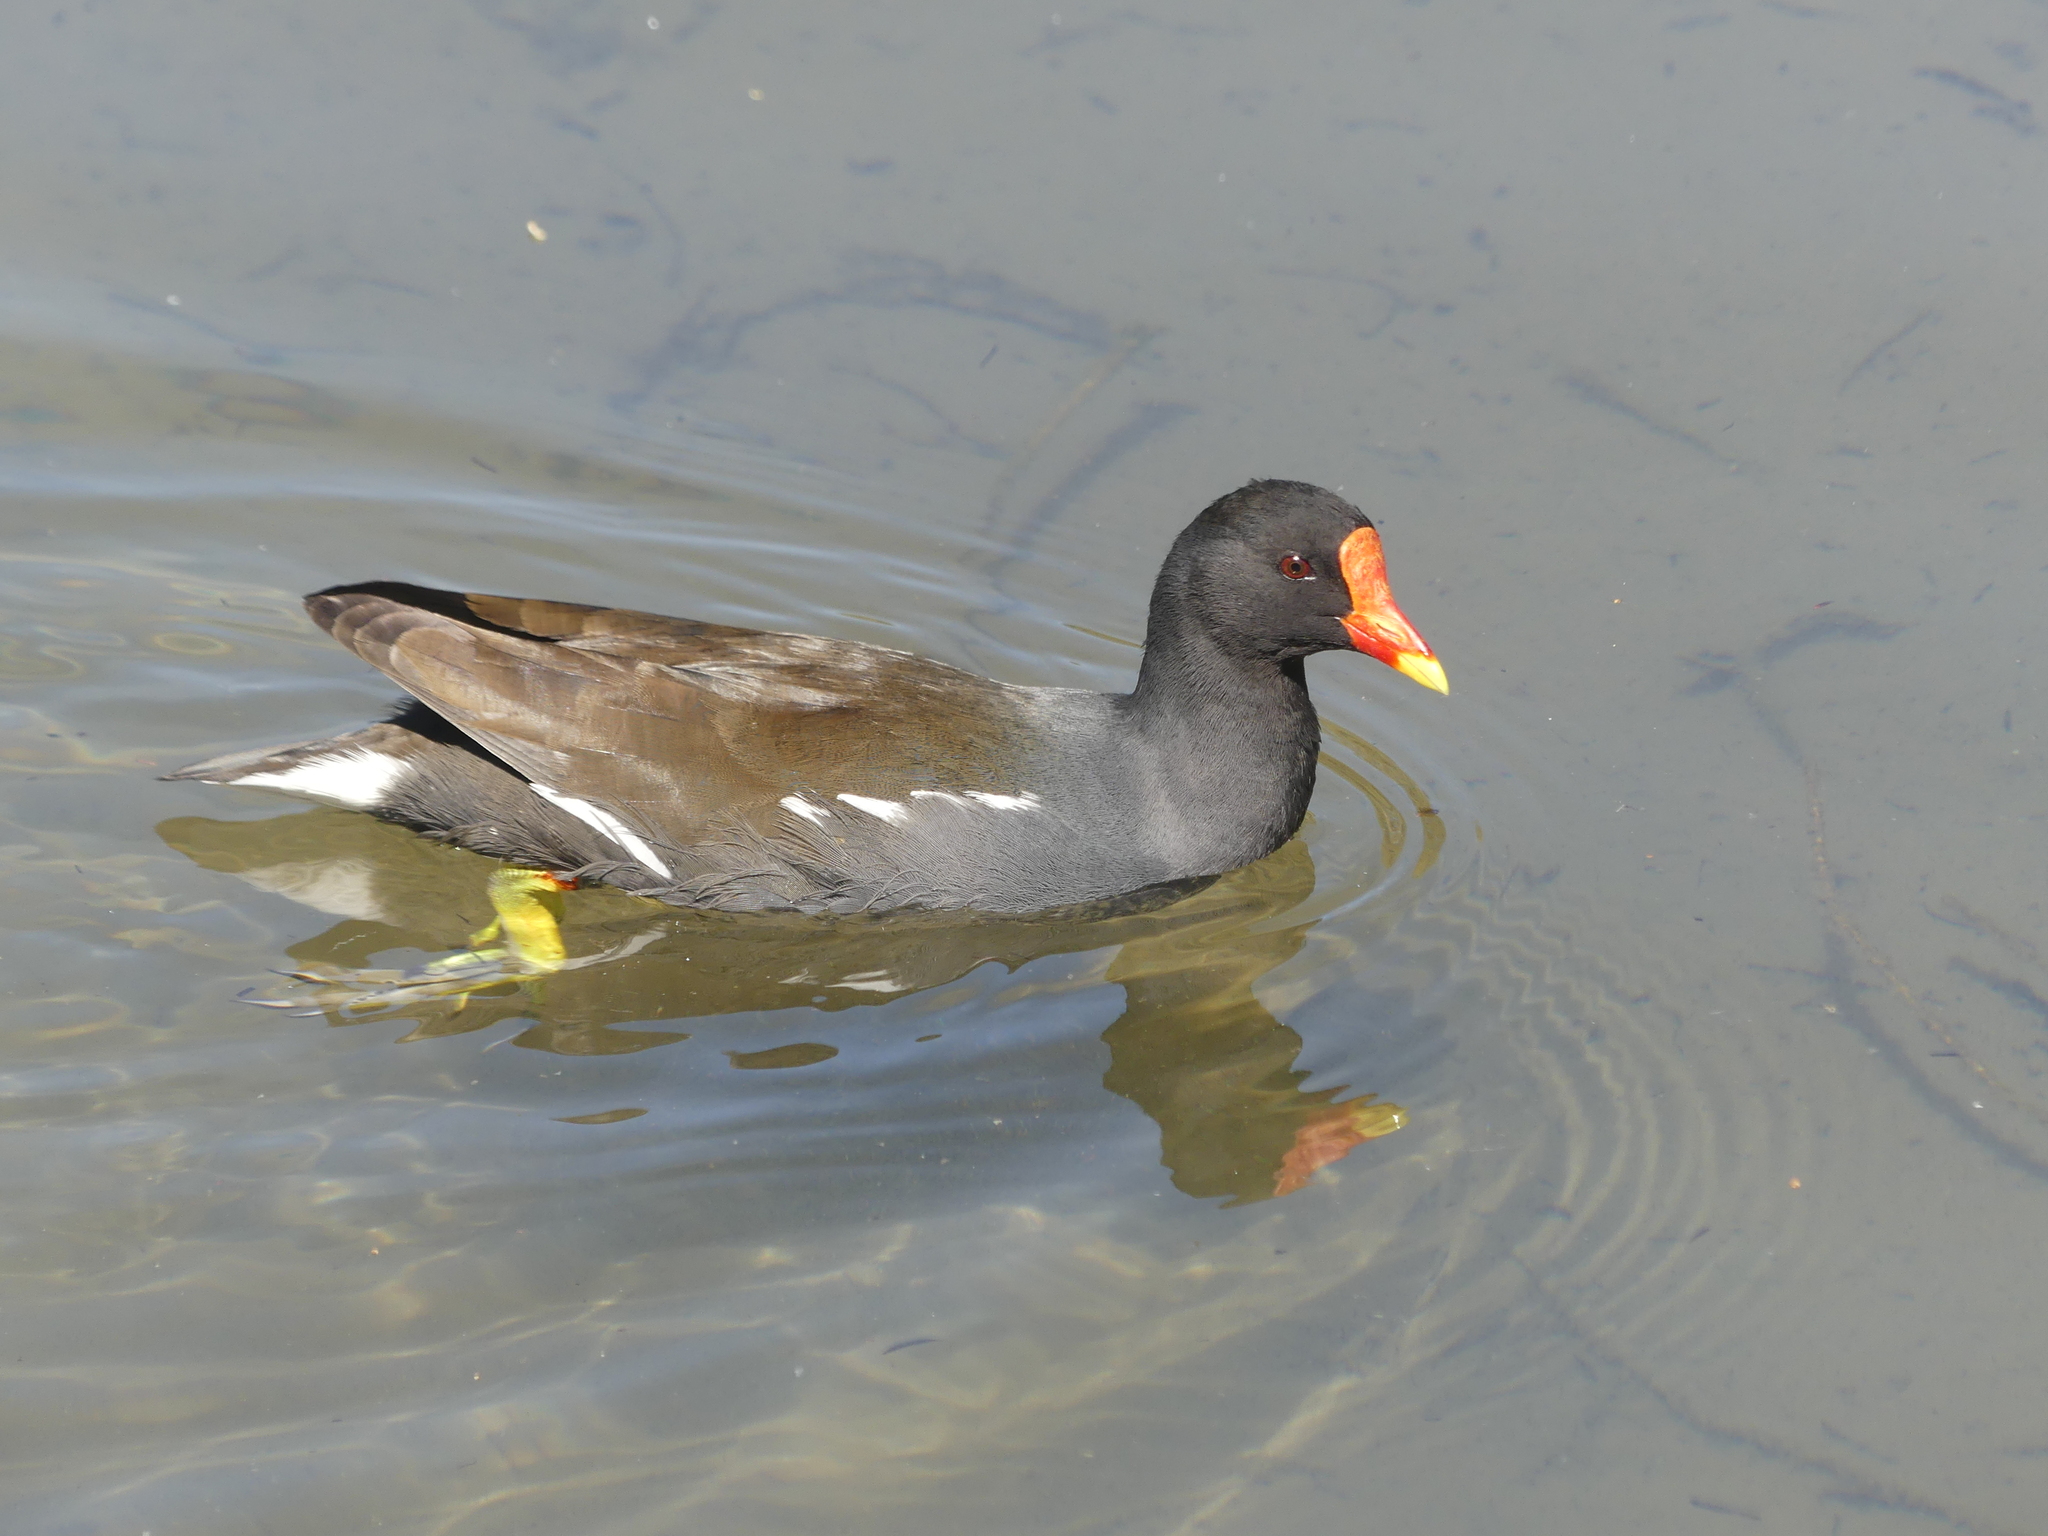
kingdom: Animalia
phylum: Chordata
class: Aves
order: Gruiformes
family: Rallidae
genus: Gallinula
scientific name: Gallinula chloropus
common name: Common moorhen
